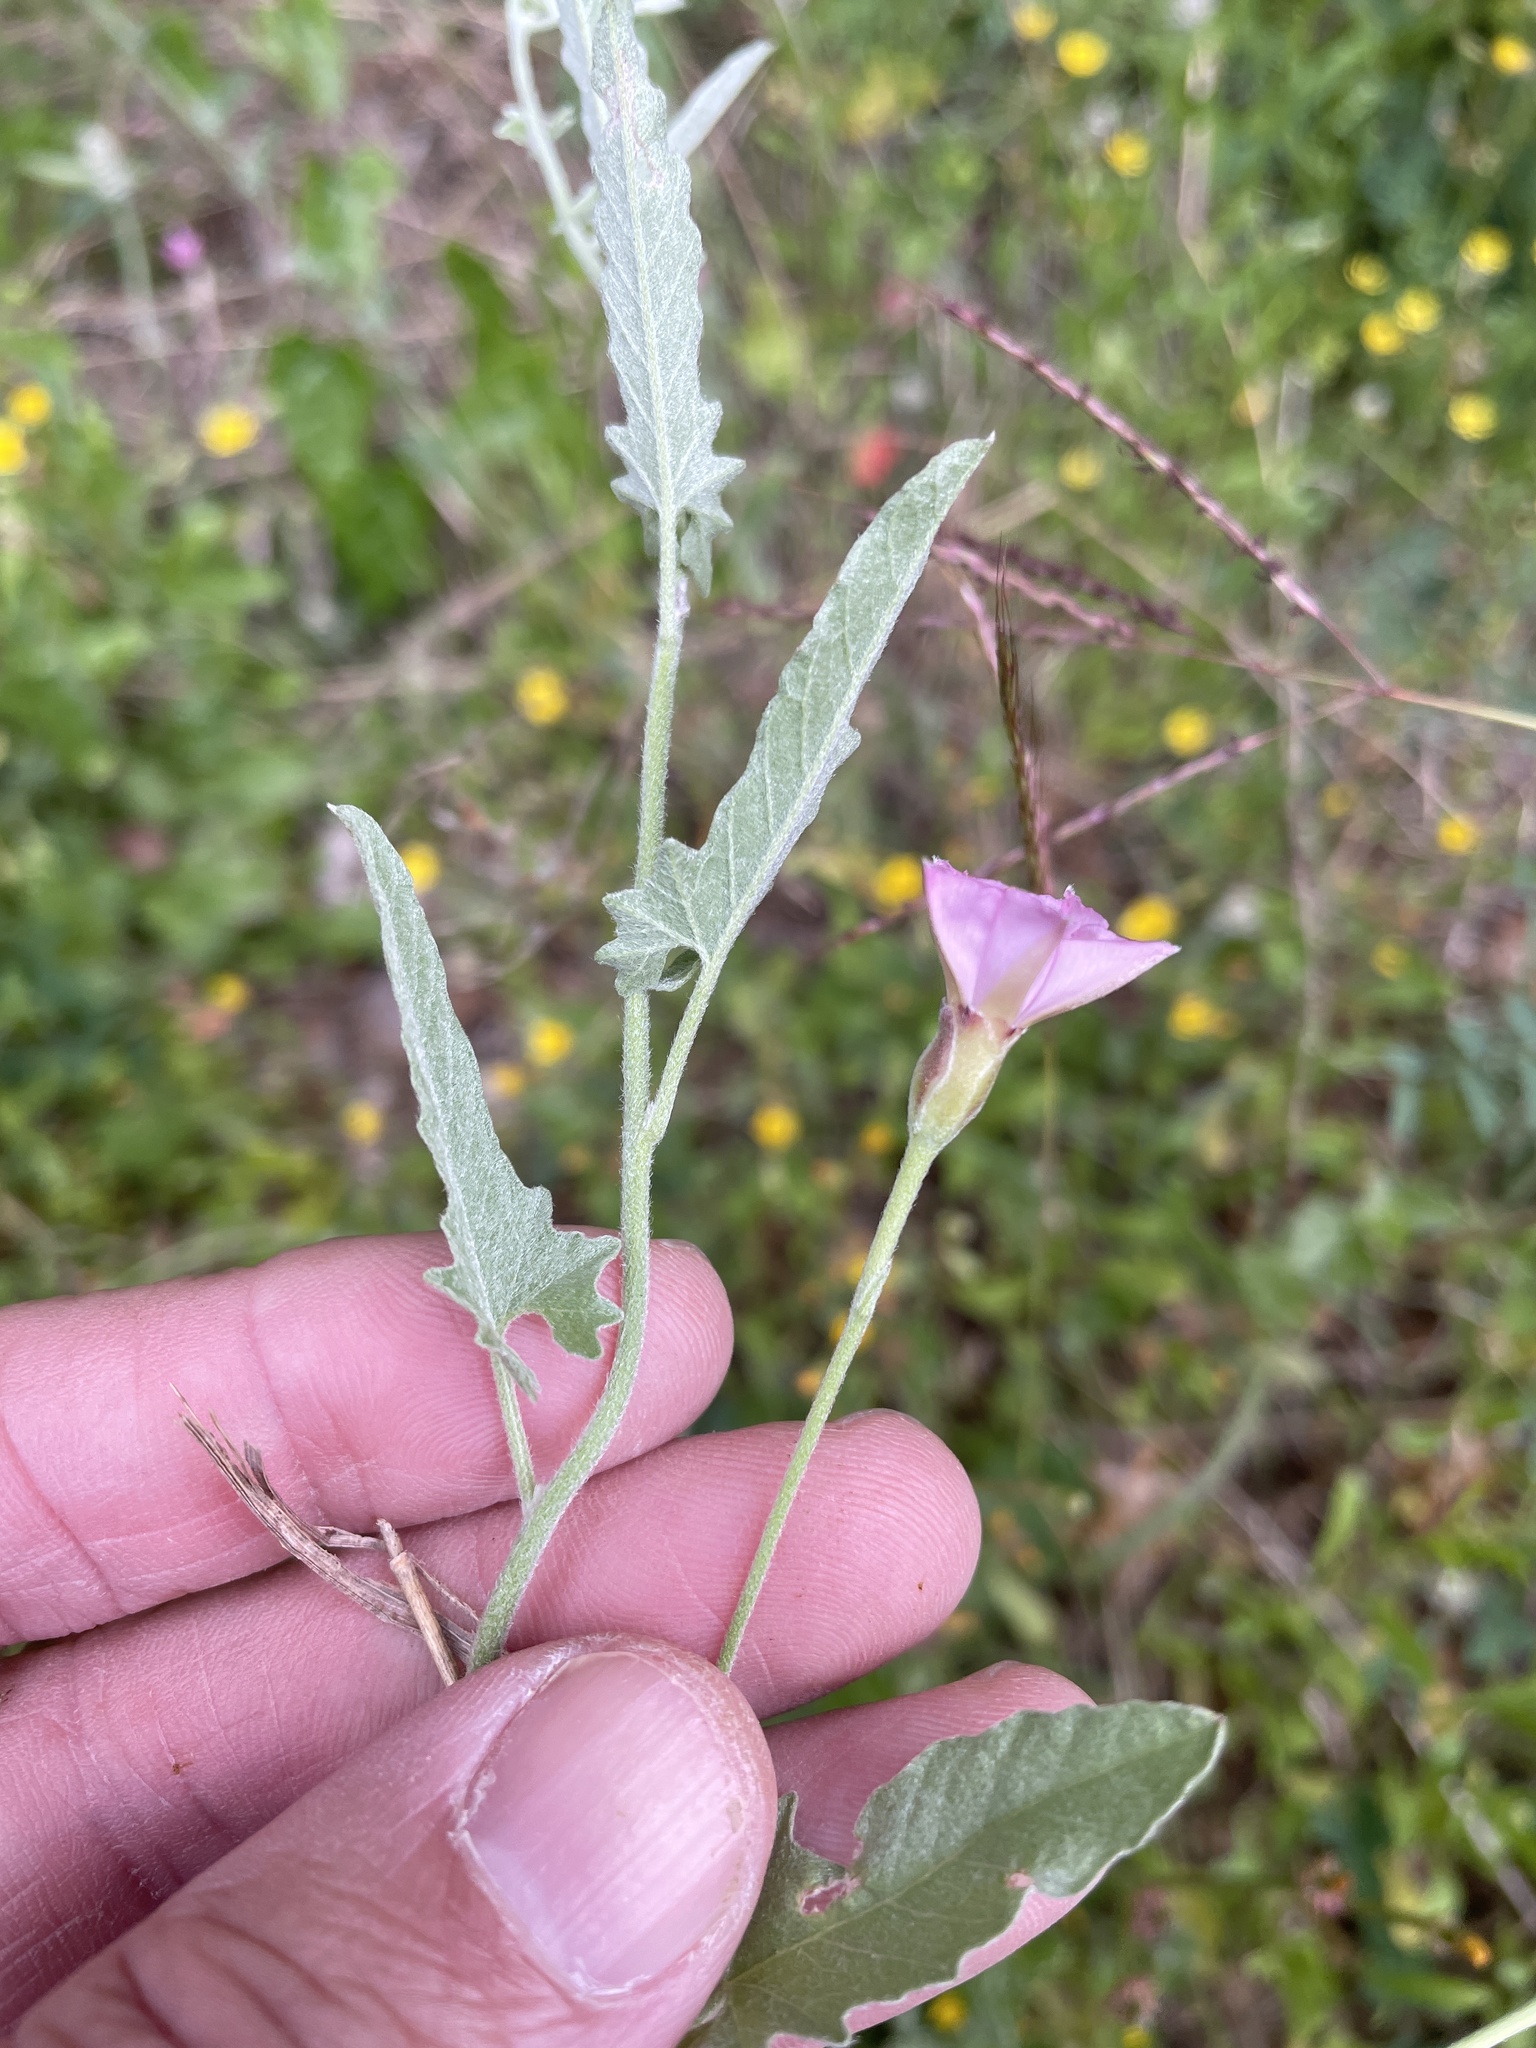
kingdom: Plantae
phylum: Tracheophyta
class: Magnoliopsida
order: Solanales
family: Convolvulaceae
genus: Convolvulus
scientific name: Convolvulus equitans
